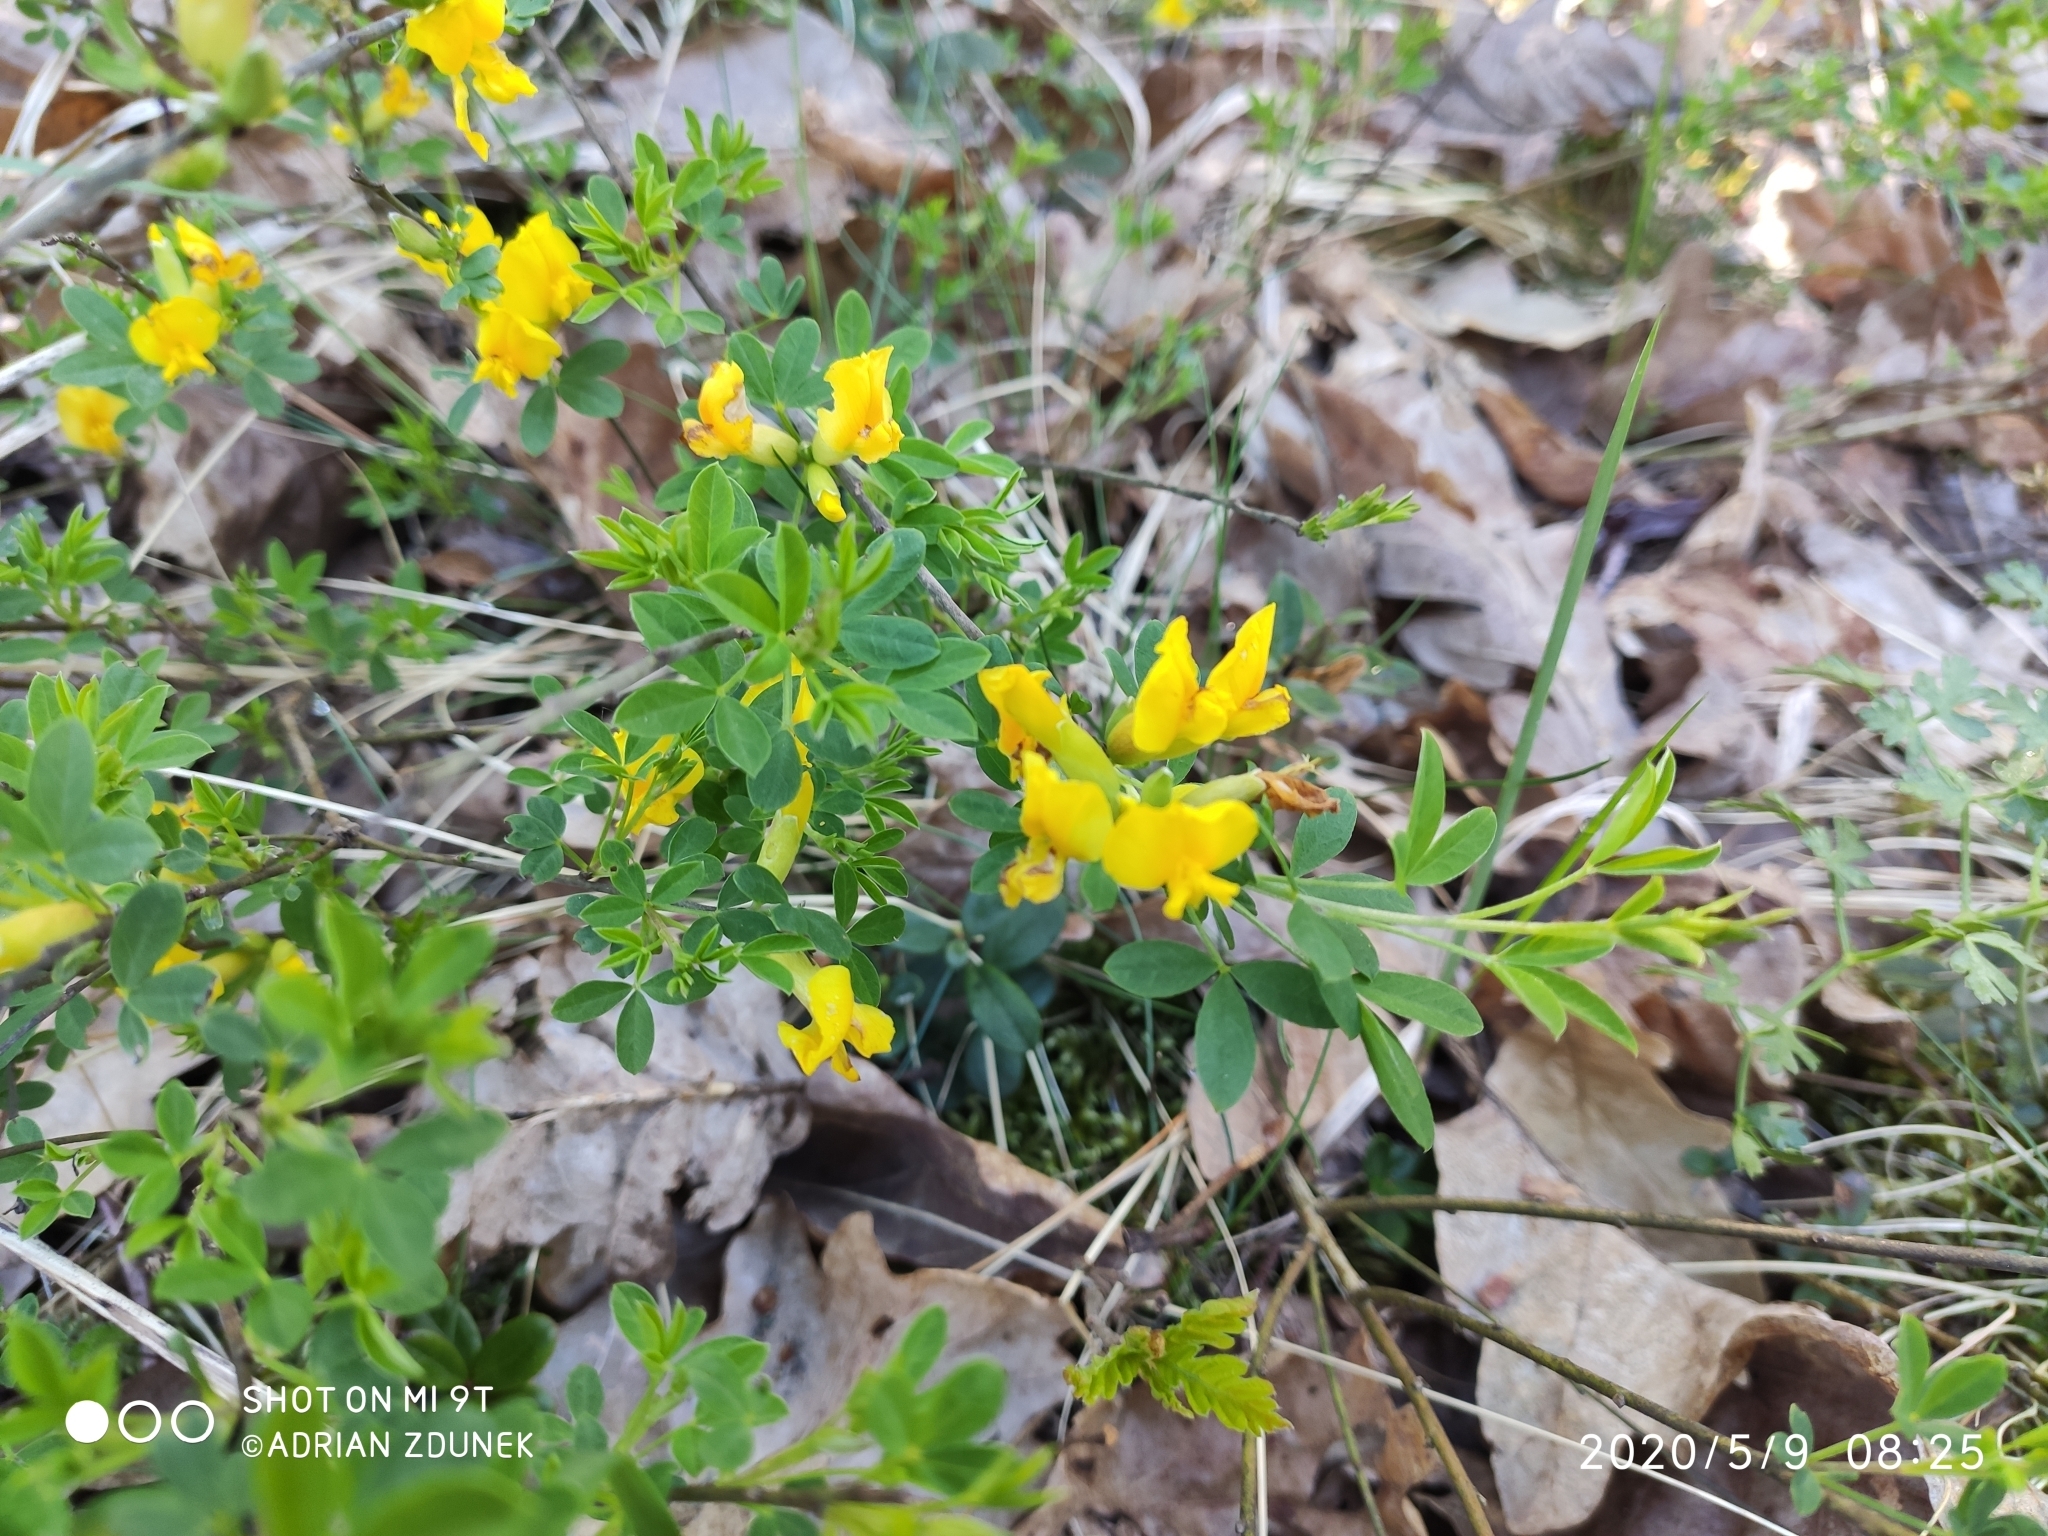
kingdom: Plantae
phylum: Tracheophyta
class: Magnoliopsida
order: Fabales
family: Fabaceae
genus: Lotus
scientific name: Lotus corniculatus
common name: Common bird's-foot-trefoil
